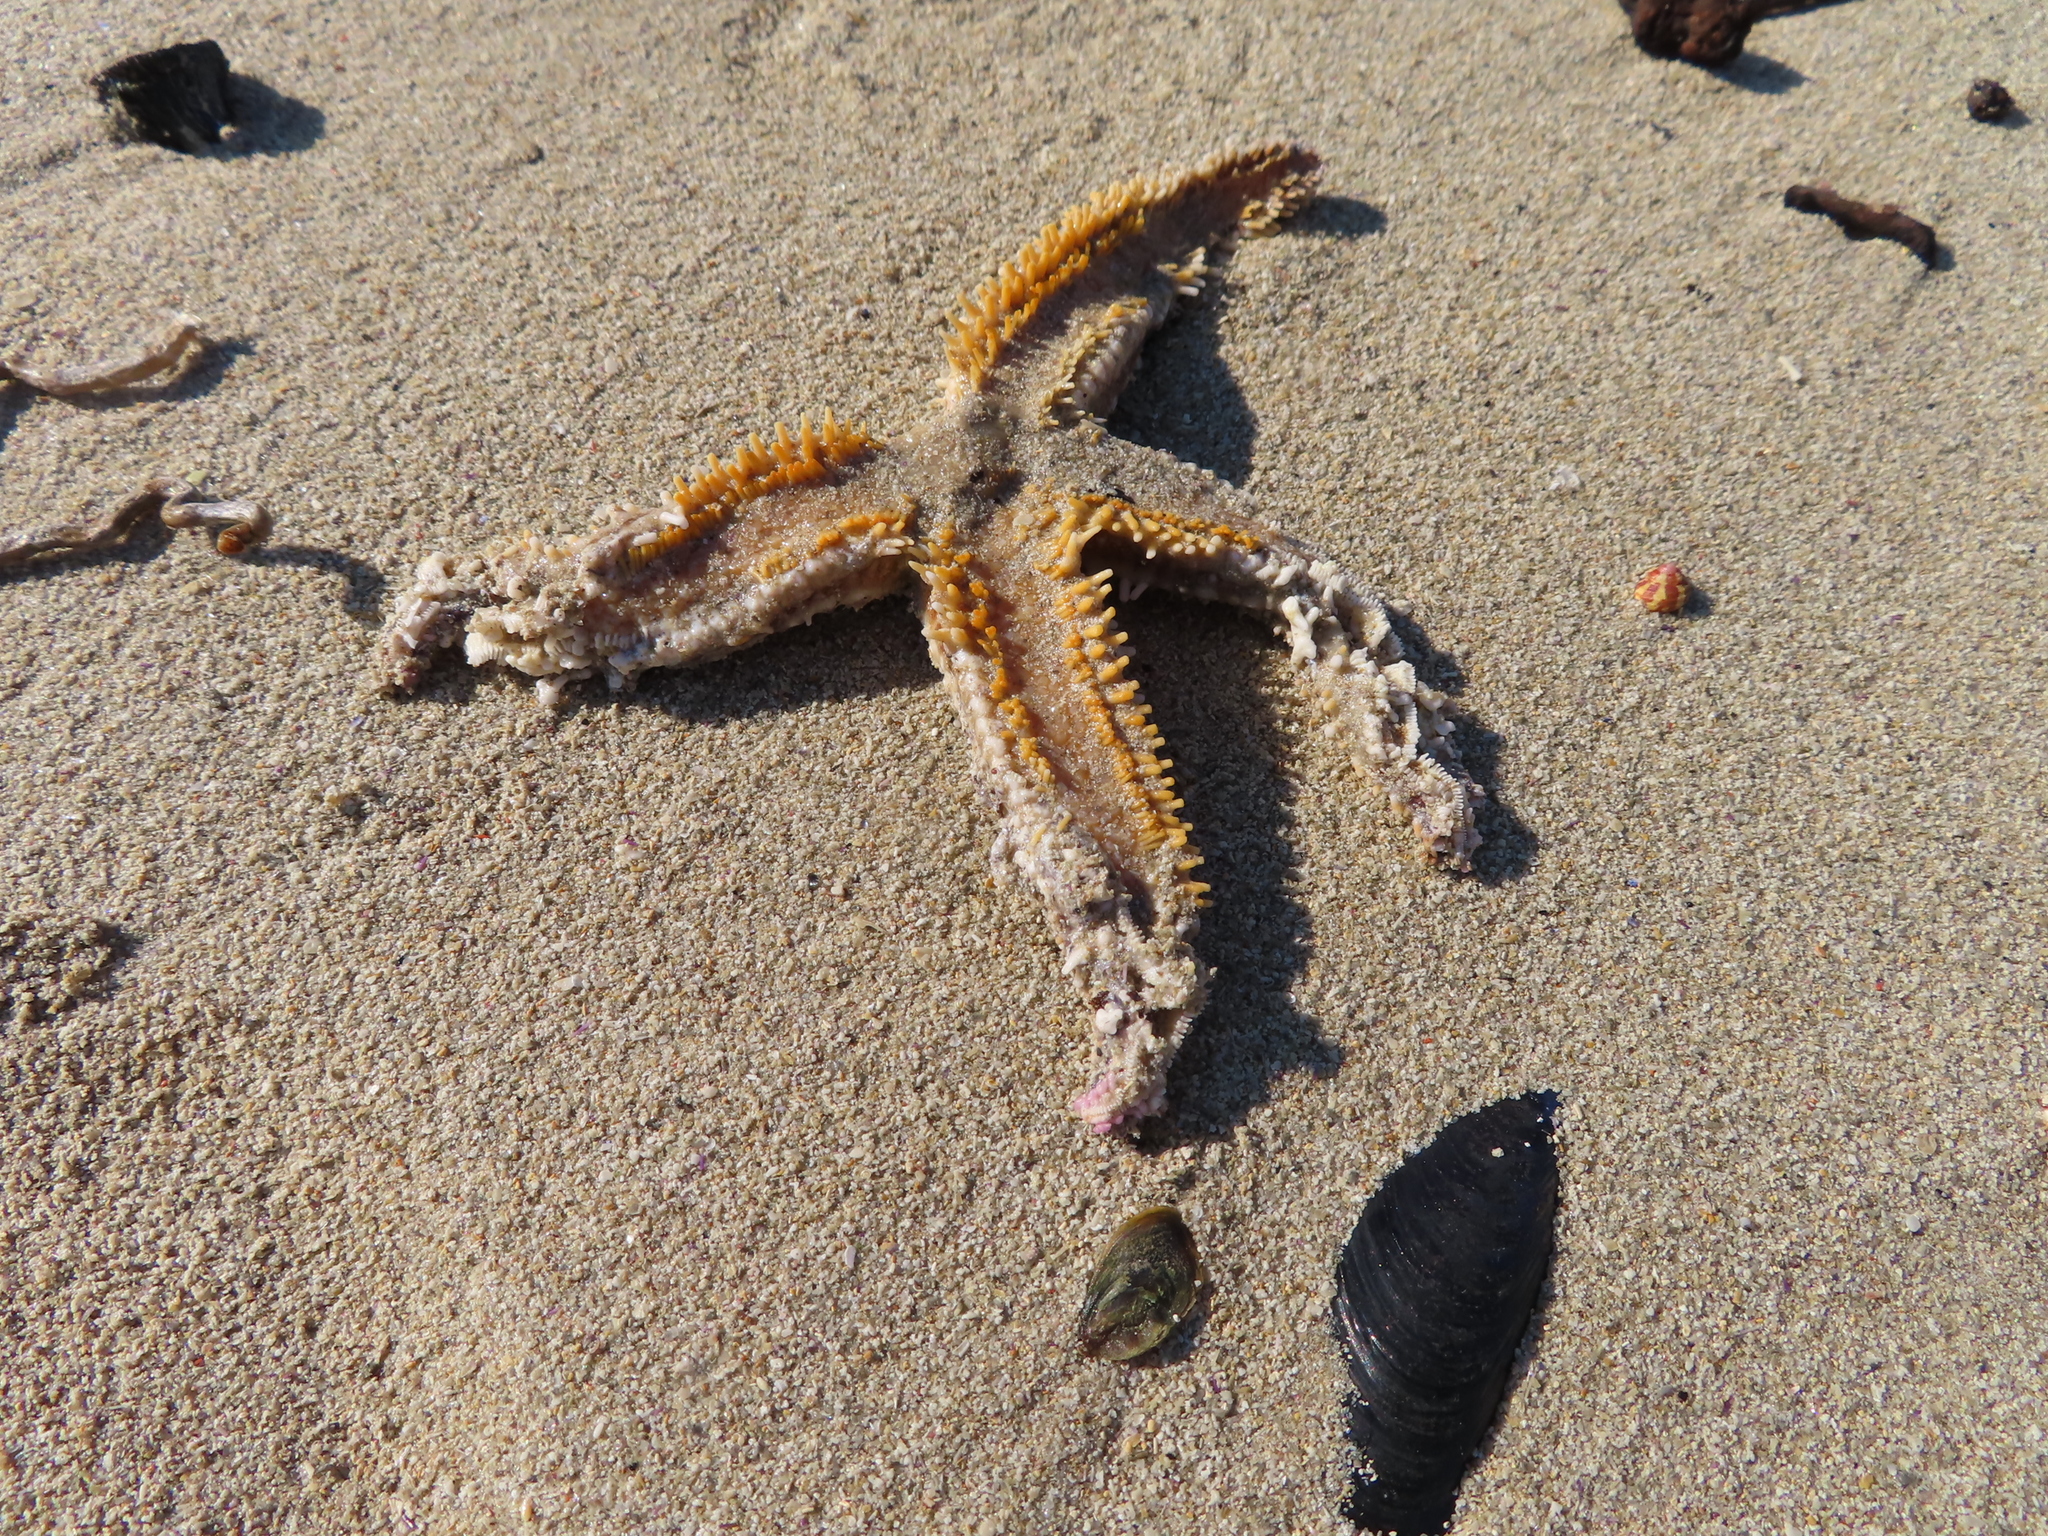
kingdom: Animalia
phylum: Echinodermata
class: Asteroidea
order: Forcipulatida
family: Asteriidae
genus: Marthasterias
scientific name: Marthasterias africana
